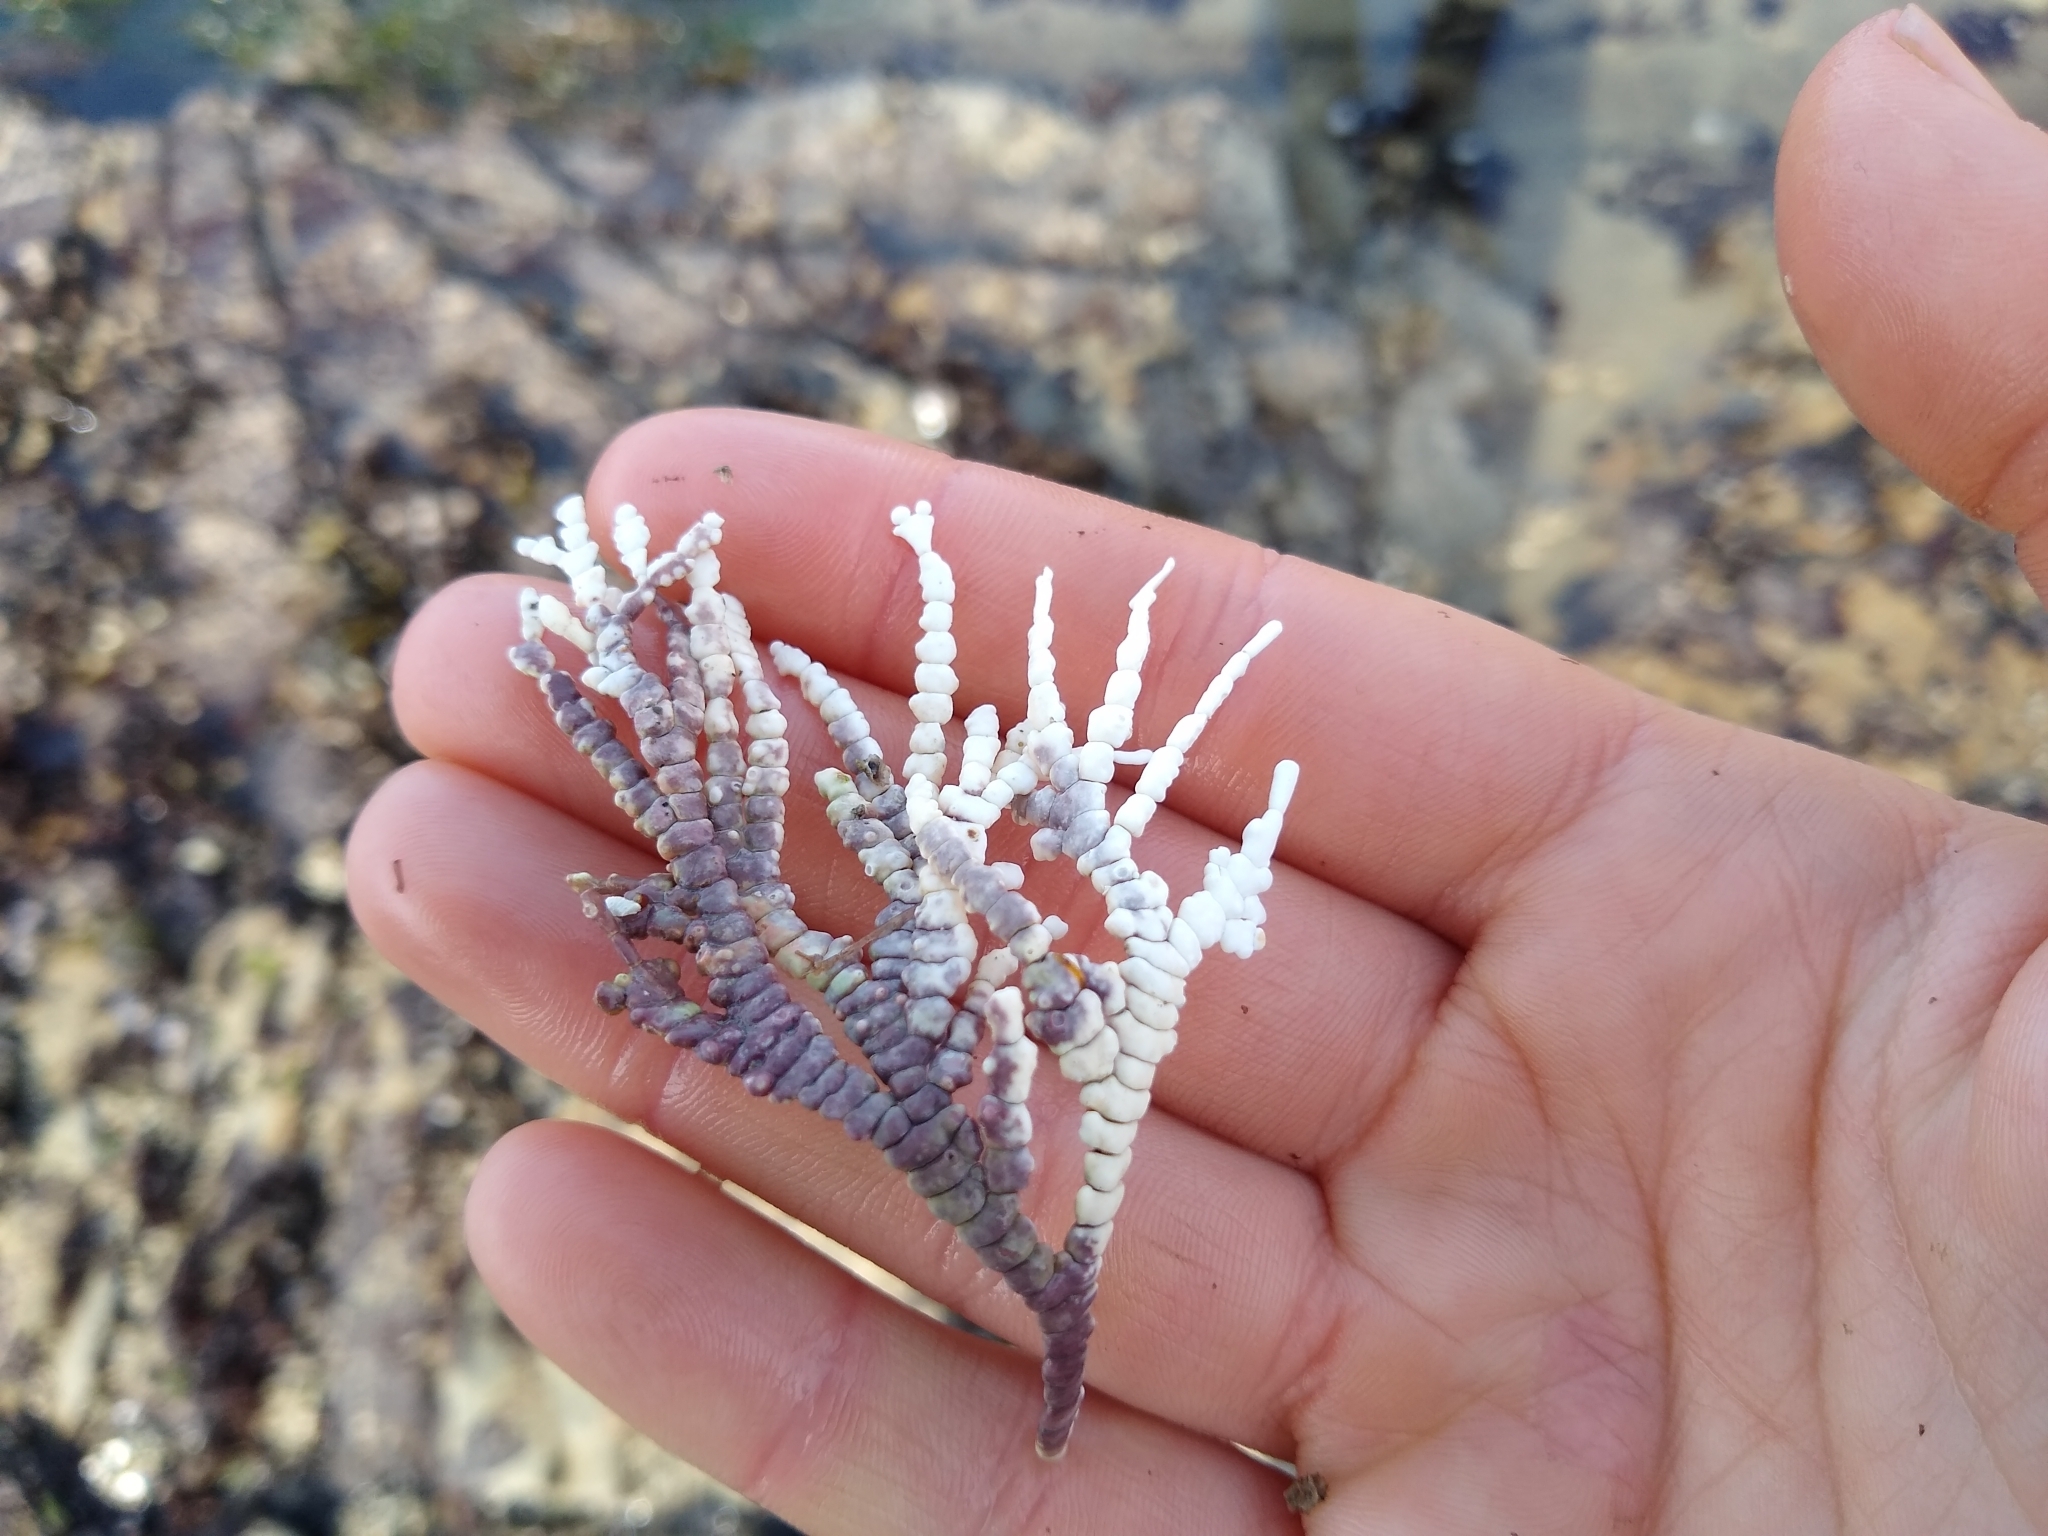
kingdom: Plantae
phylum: Rhodophyta
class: Florideophyceae
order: Corallinales
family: Corallinaceae
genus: Calliarthron
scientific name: Calliarthron tuberculosum
